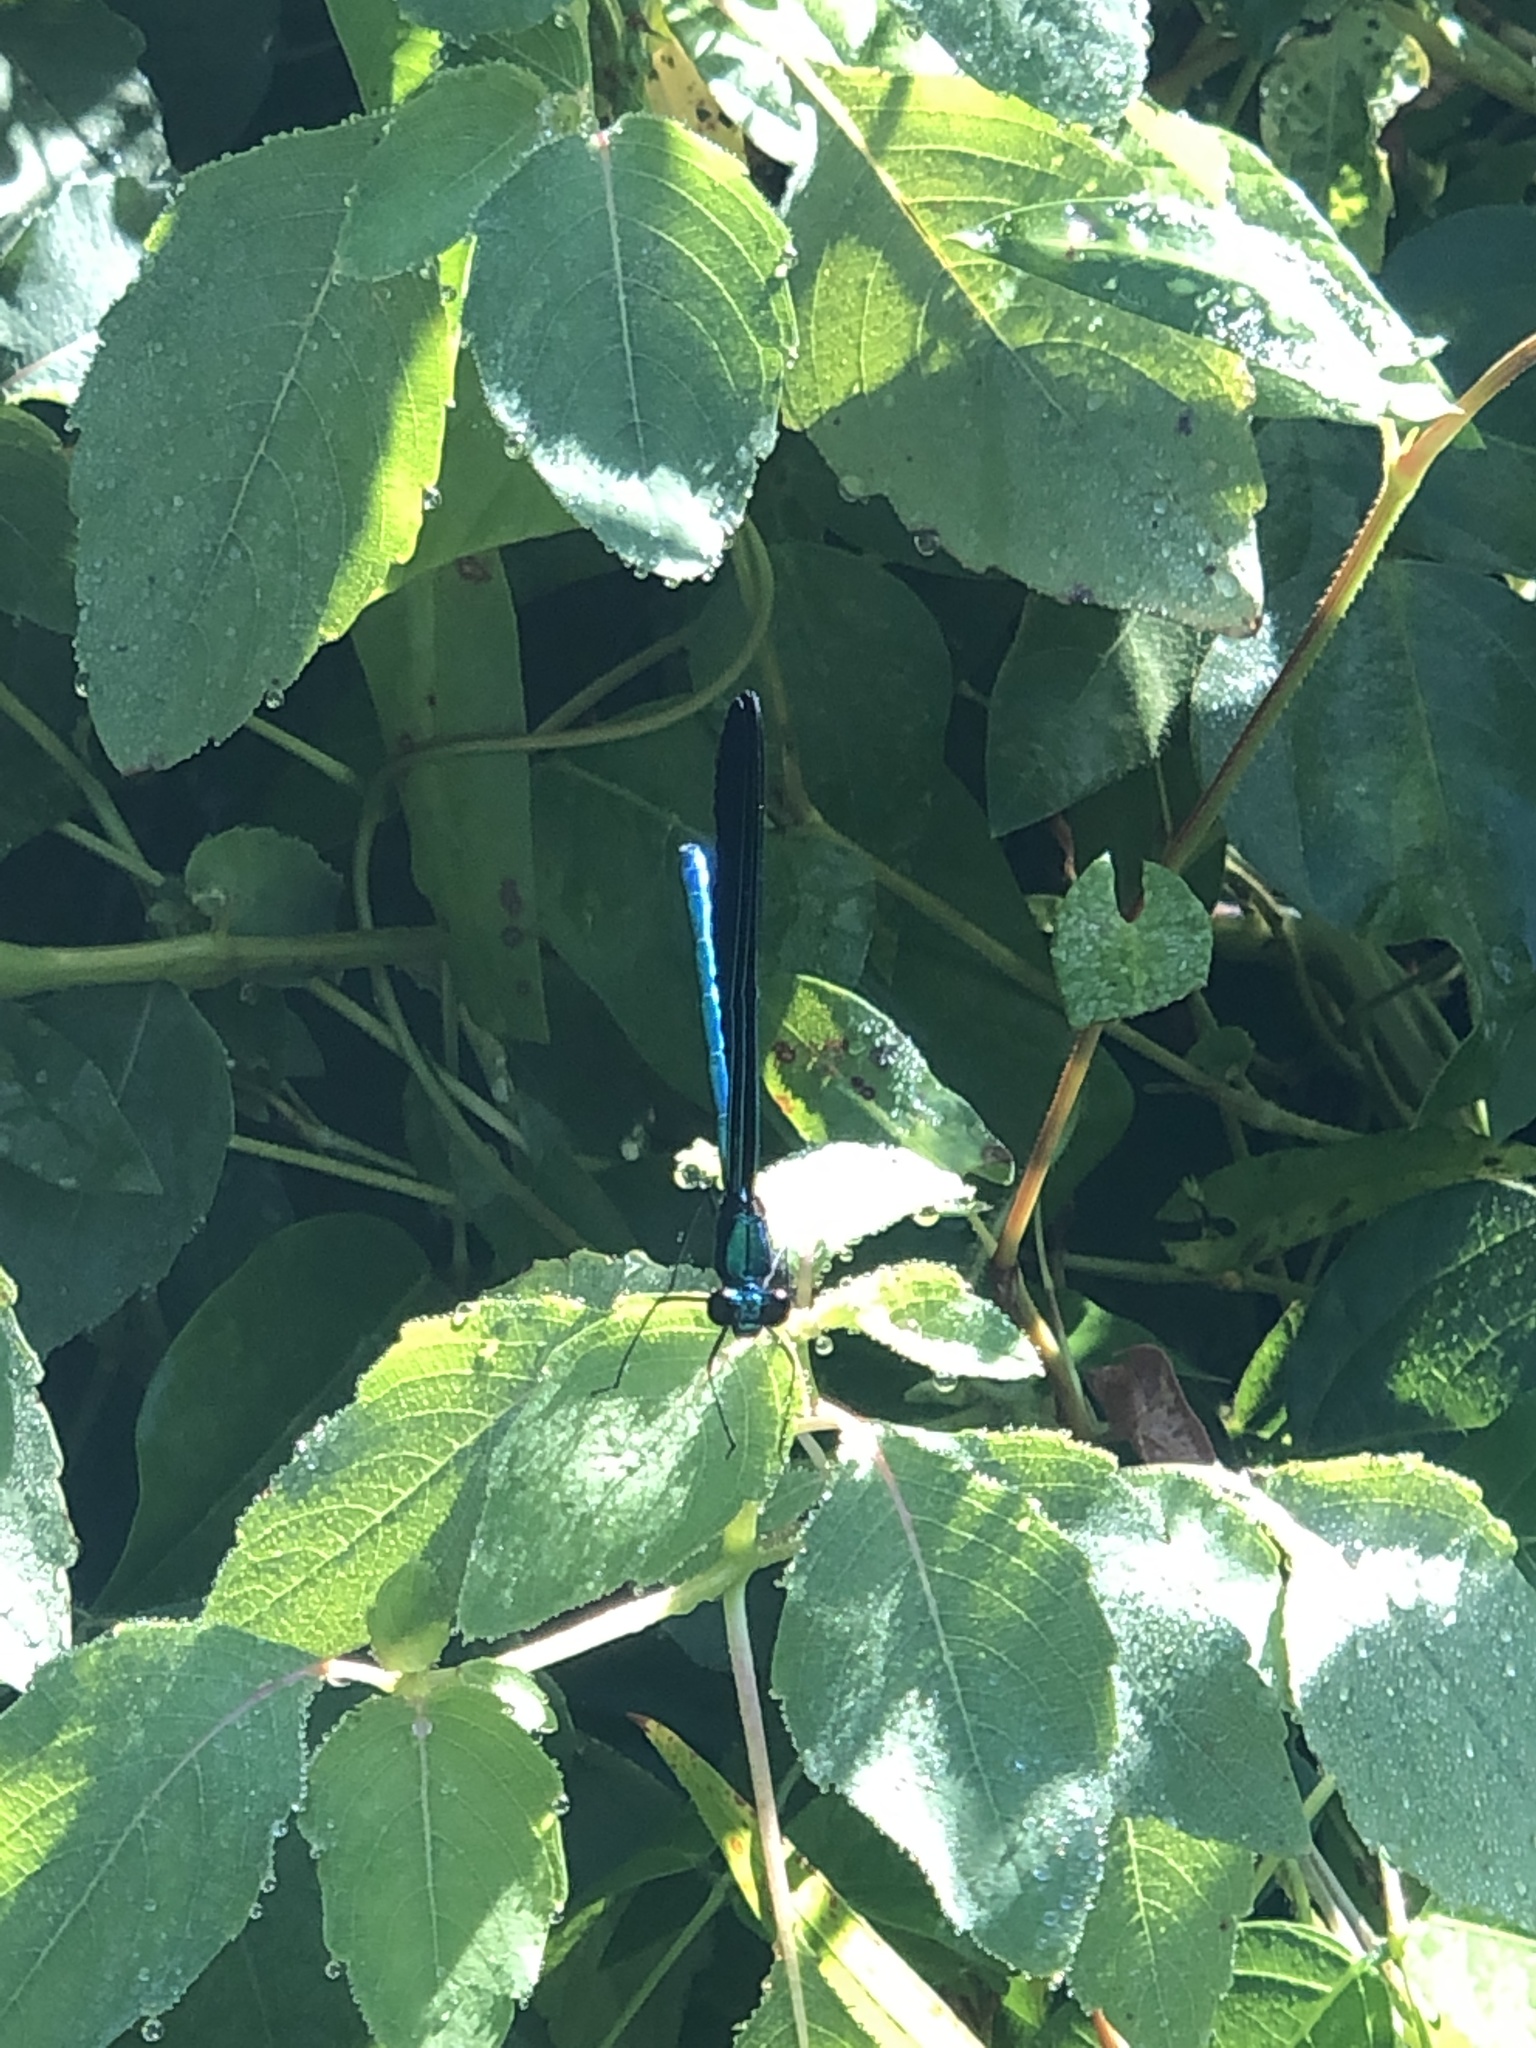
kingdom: Animalia
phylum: Arthropoda
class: Insecta
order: Odonata
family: Calopterygidae
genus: Calopteryx
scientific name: Calopteryx maculata
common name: Ebony jewelwing
